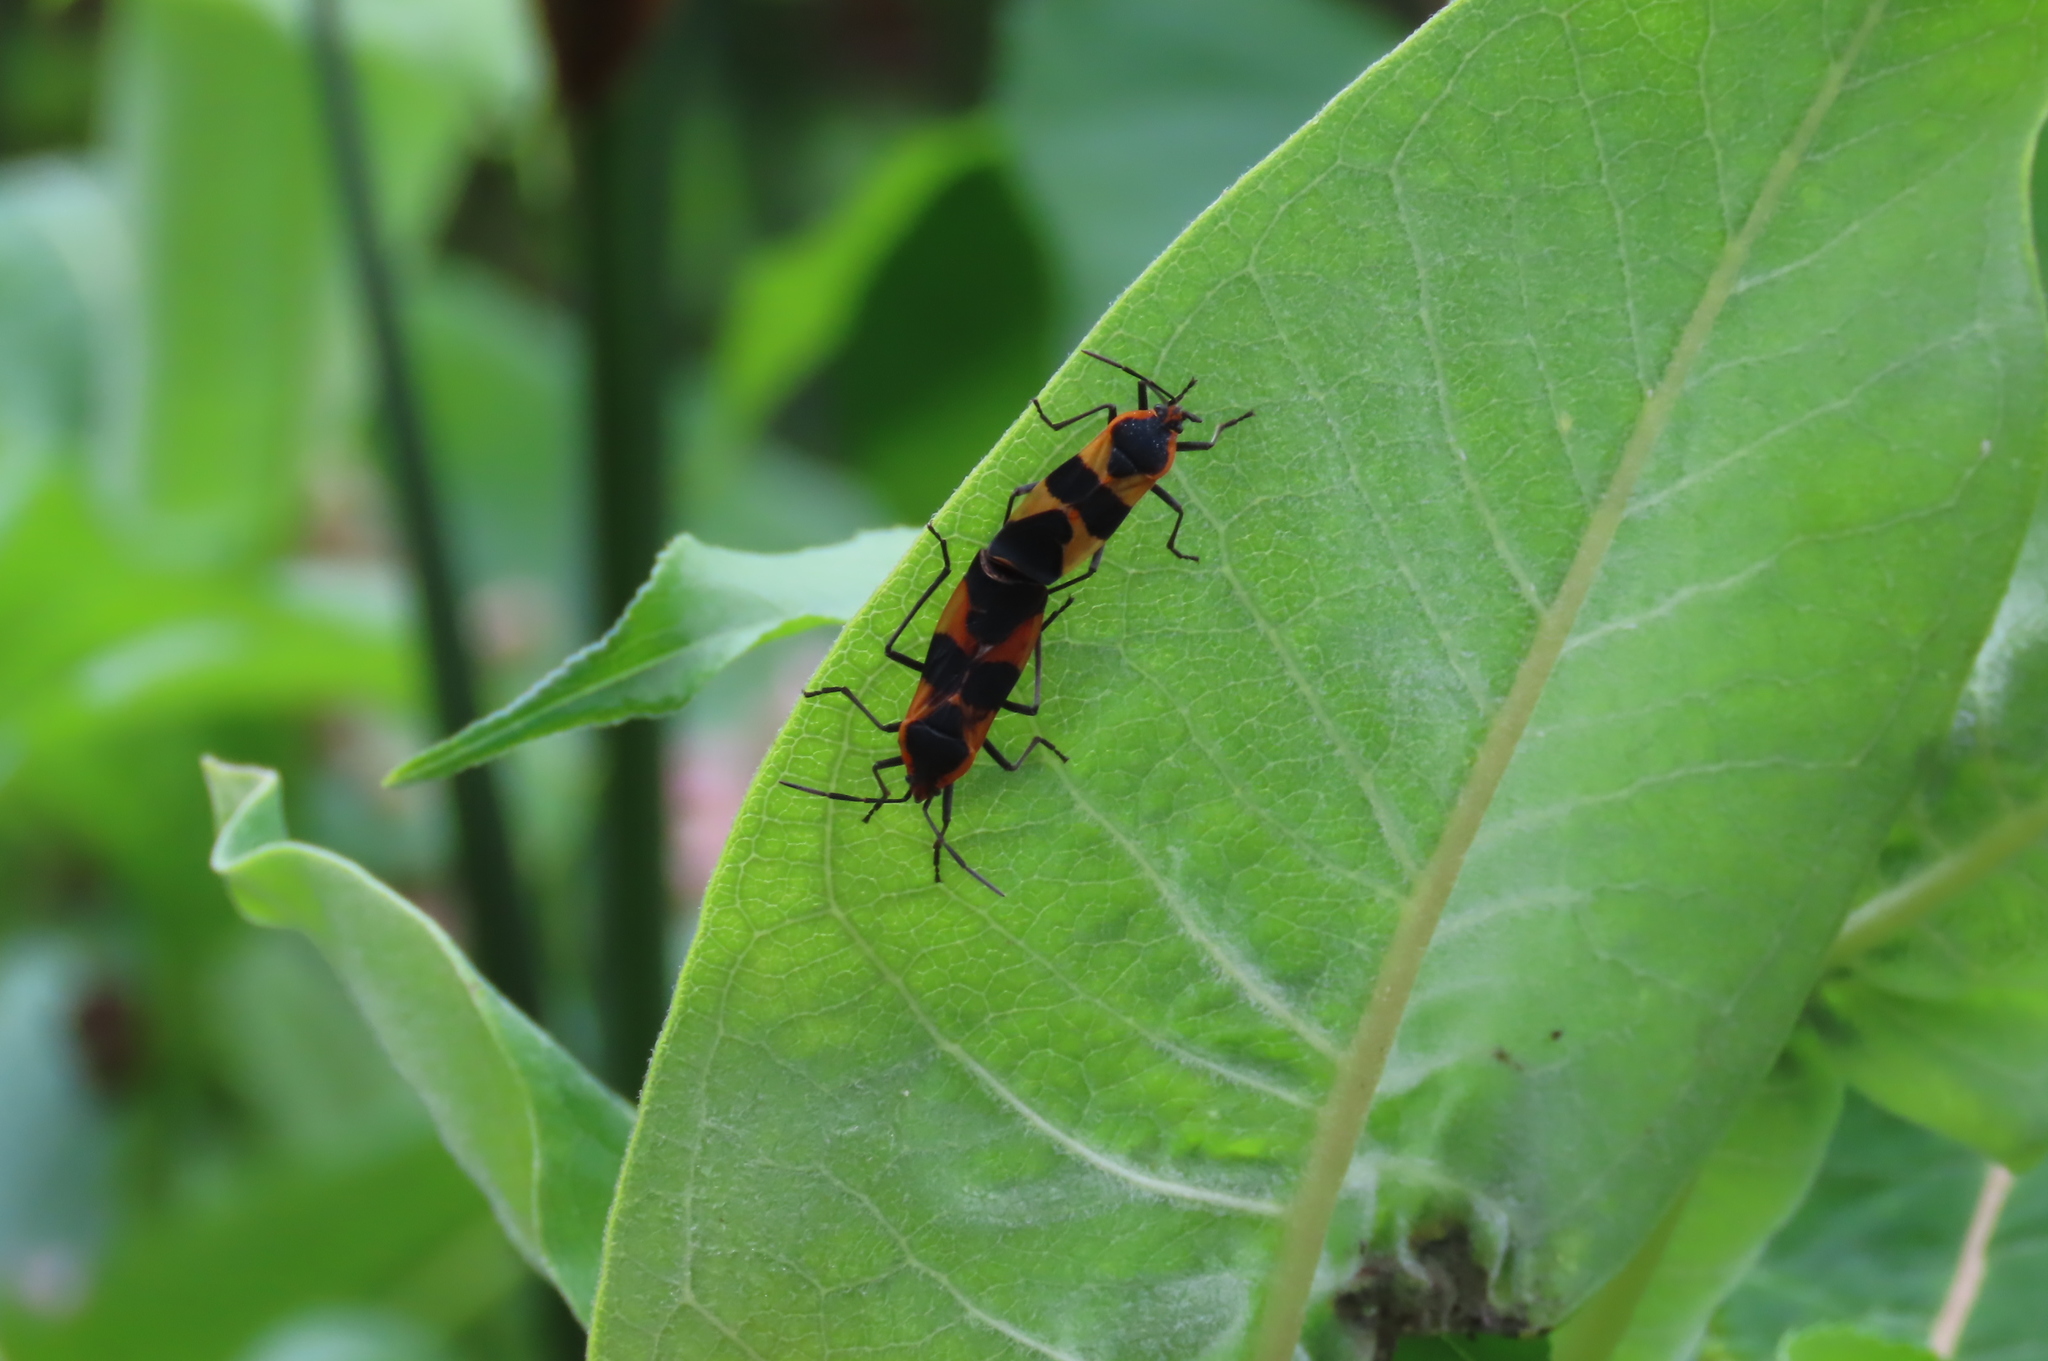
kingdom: Animalia
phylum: Arthropoda
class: Insecta
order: Hemiptera
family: Lygaeidae
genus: Oncopeltus
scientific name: Oncopeltus fasciatus
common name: Large milkweed bug
